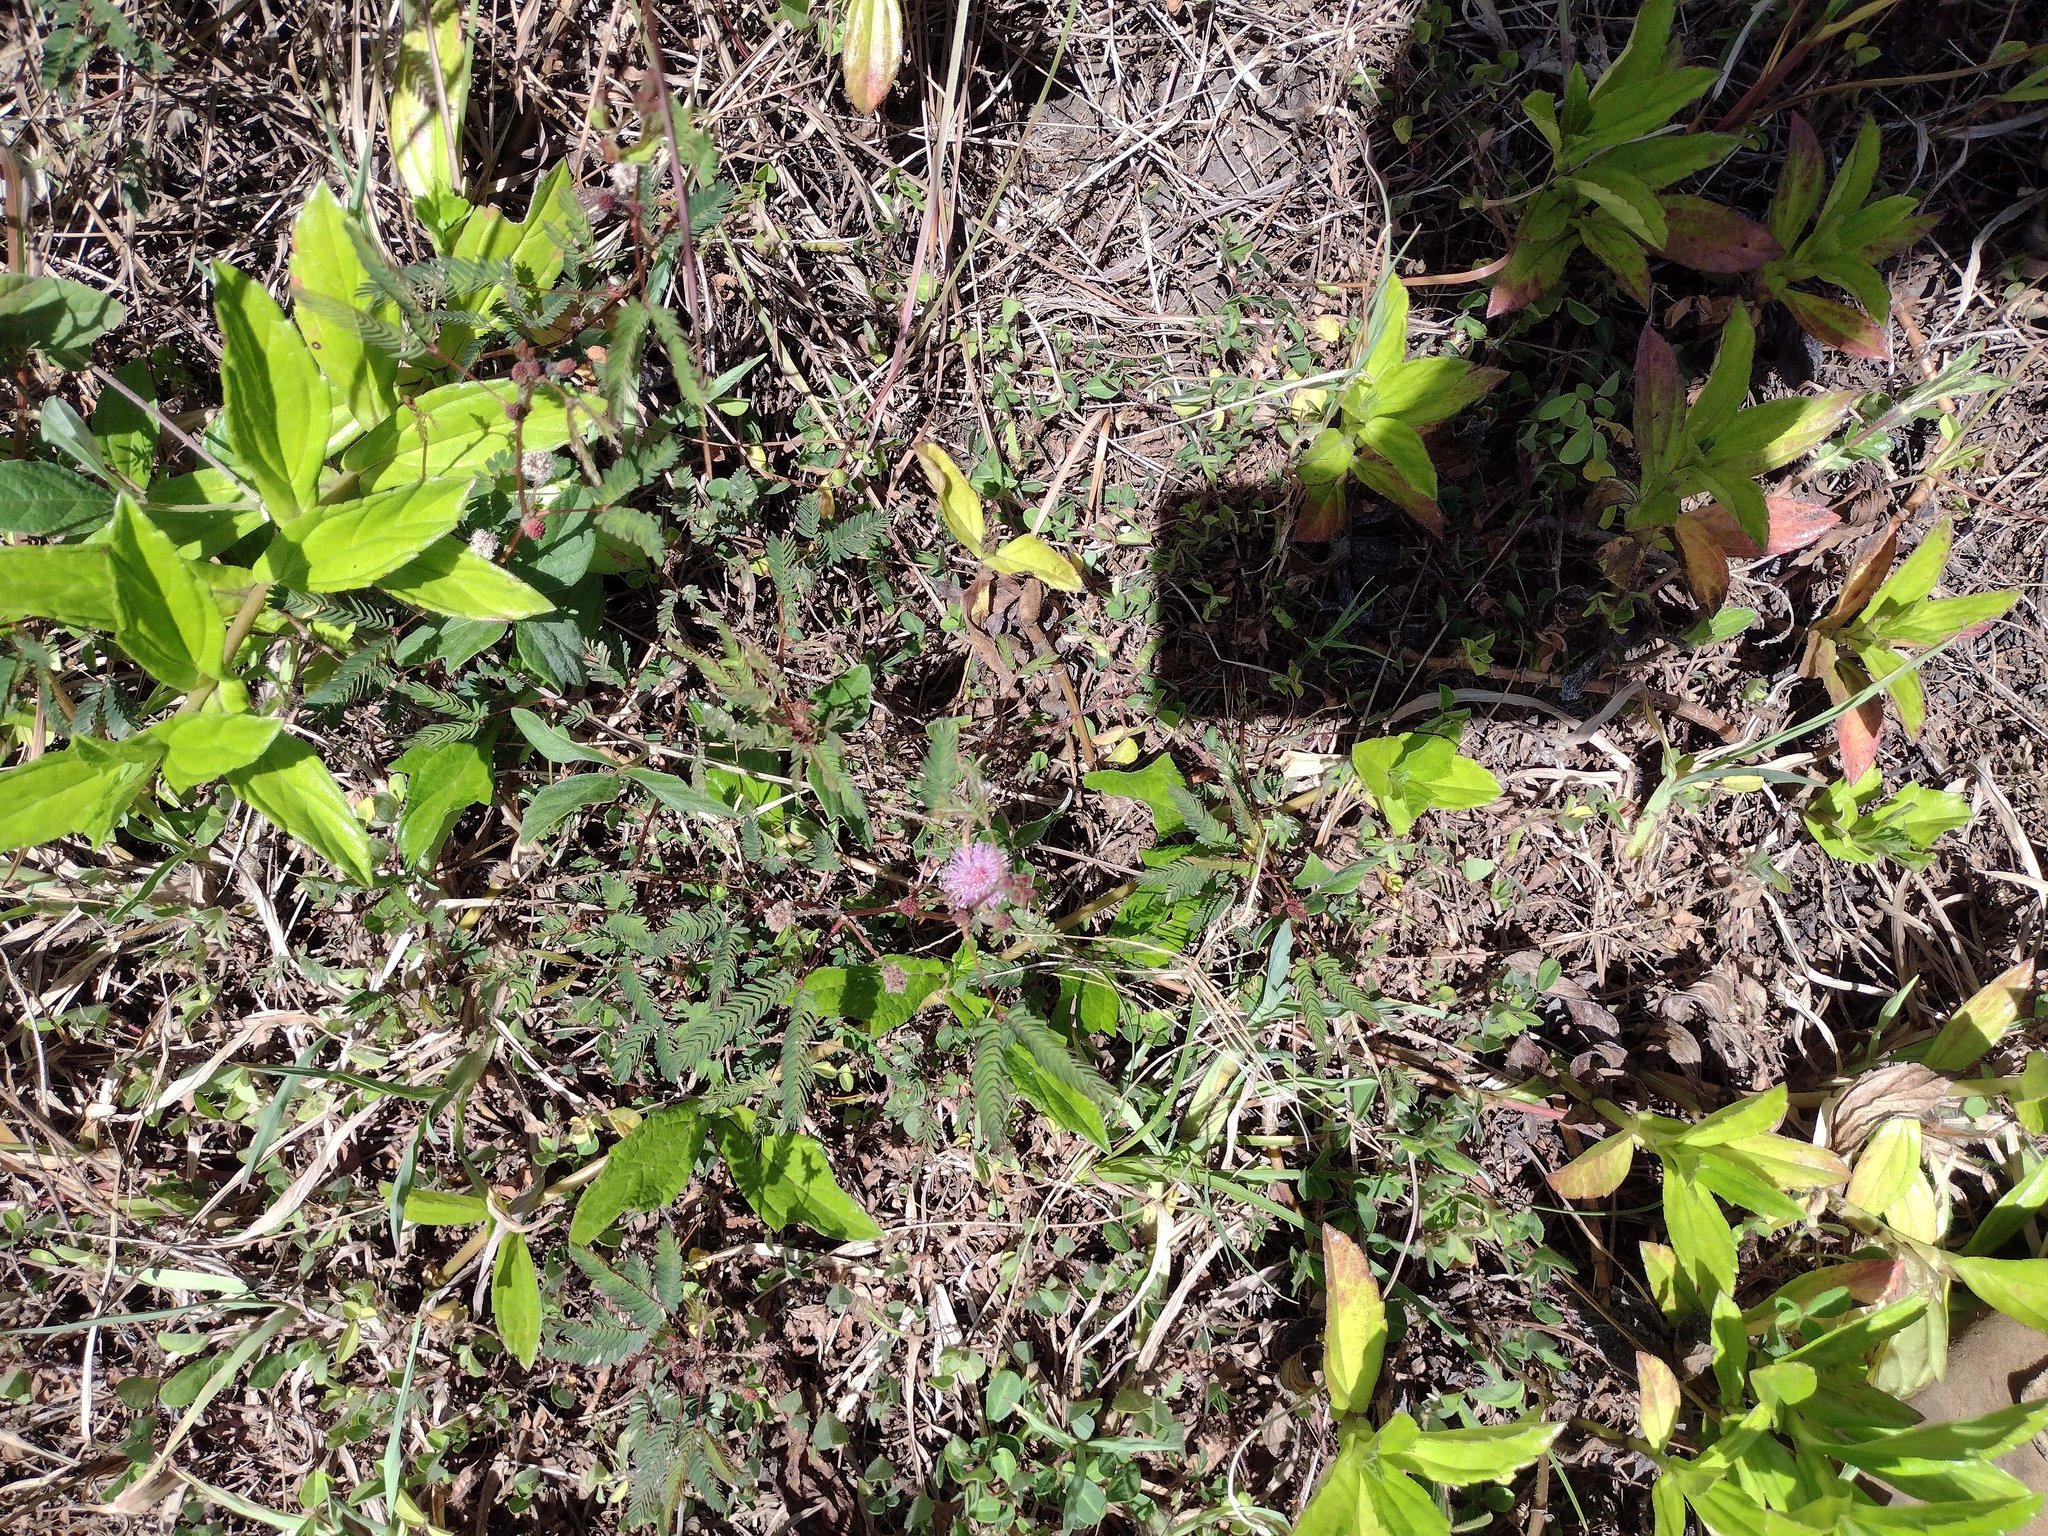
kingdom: Plantae
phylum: Tracheophyta
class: Magnoliopsida
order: Fabales
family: Fabaceae
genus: Mimosa
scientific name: Mimosa pudica
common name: Sensitive plant
